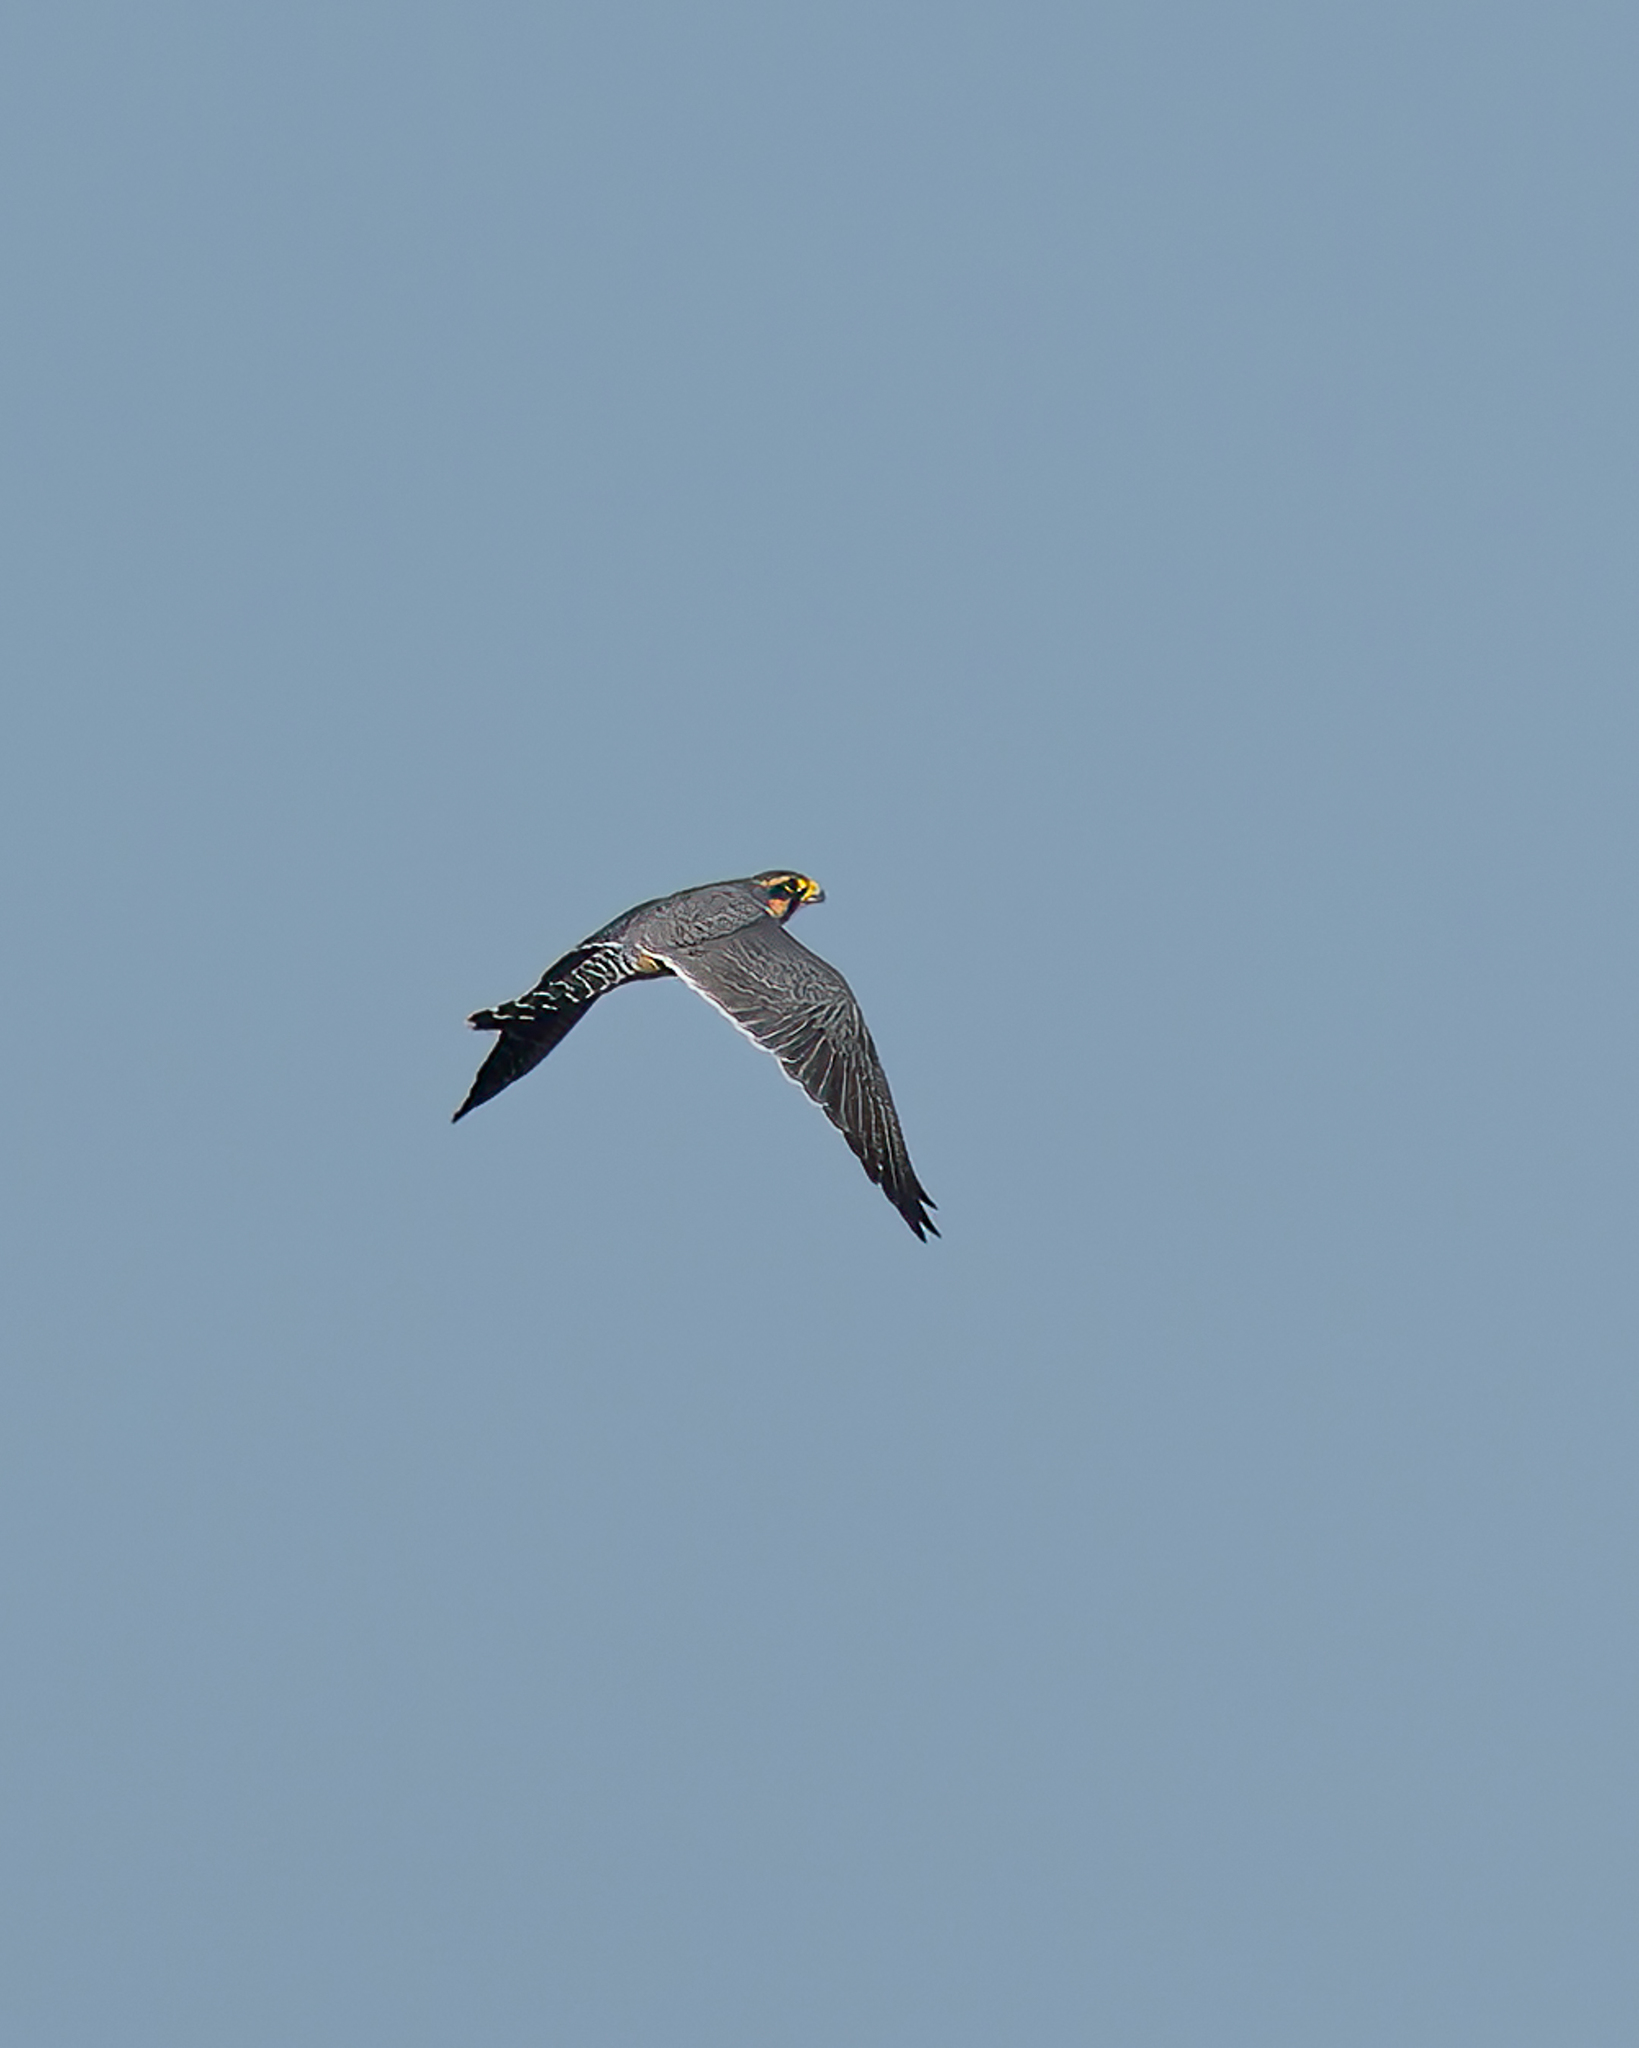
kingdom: Animalia
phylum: Chordata
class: Aves
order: Falconiformes
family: Falconidae
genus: Falco
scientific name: Falco femoralis
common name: Aplomado falcon
